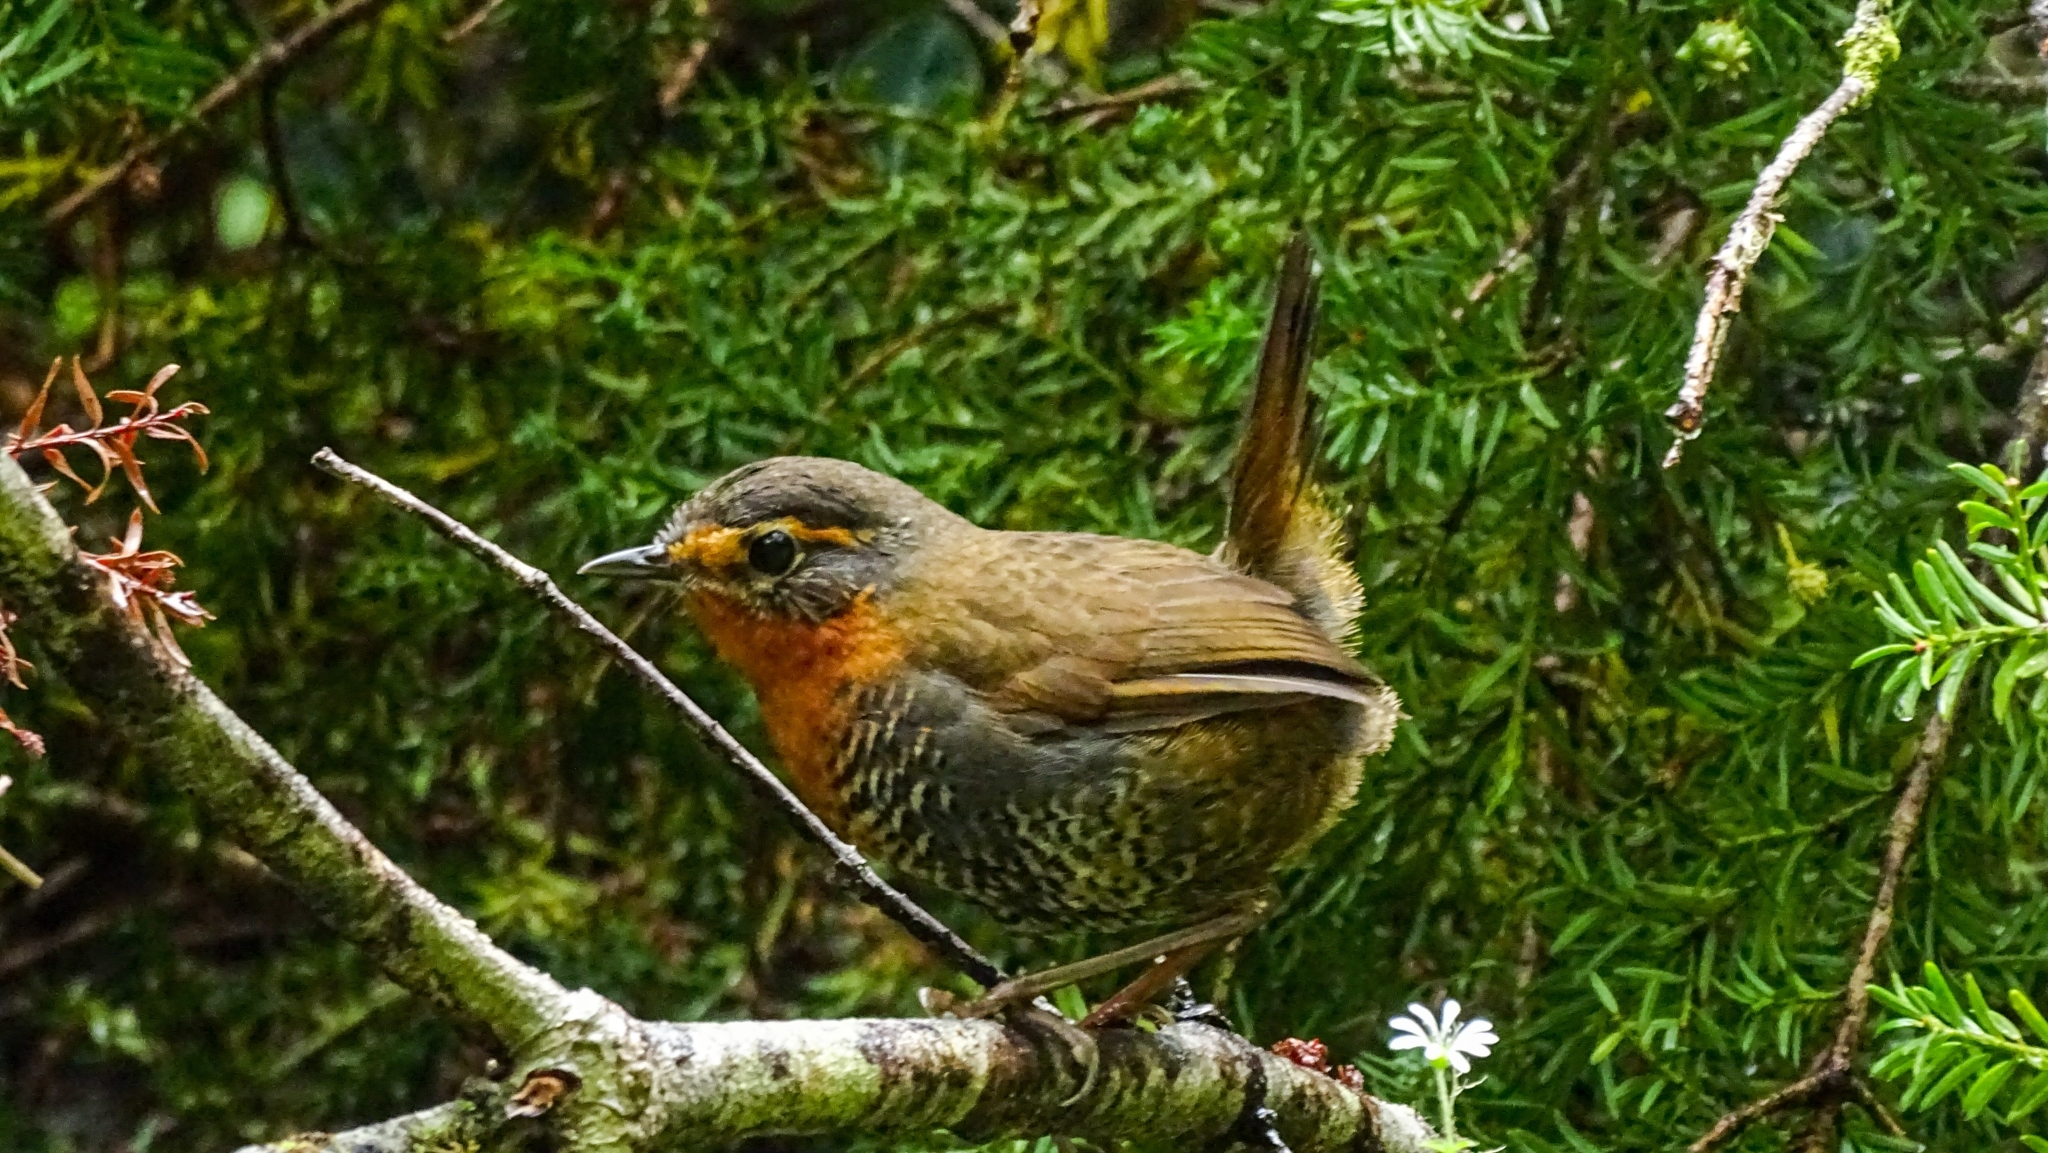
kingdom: Animalia
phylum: Chordata
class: Aves
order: Passeriformes
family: Rhinocryptidae
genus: Scelorchilus
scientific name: Scelorchilus rubecula
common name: Chucao tapaculo
